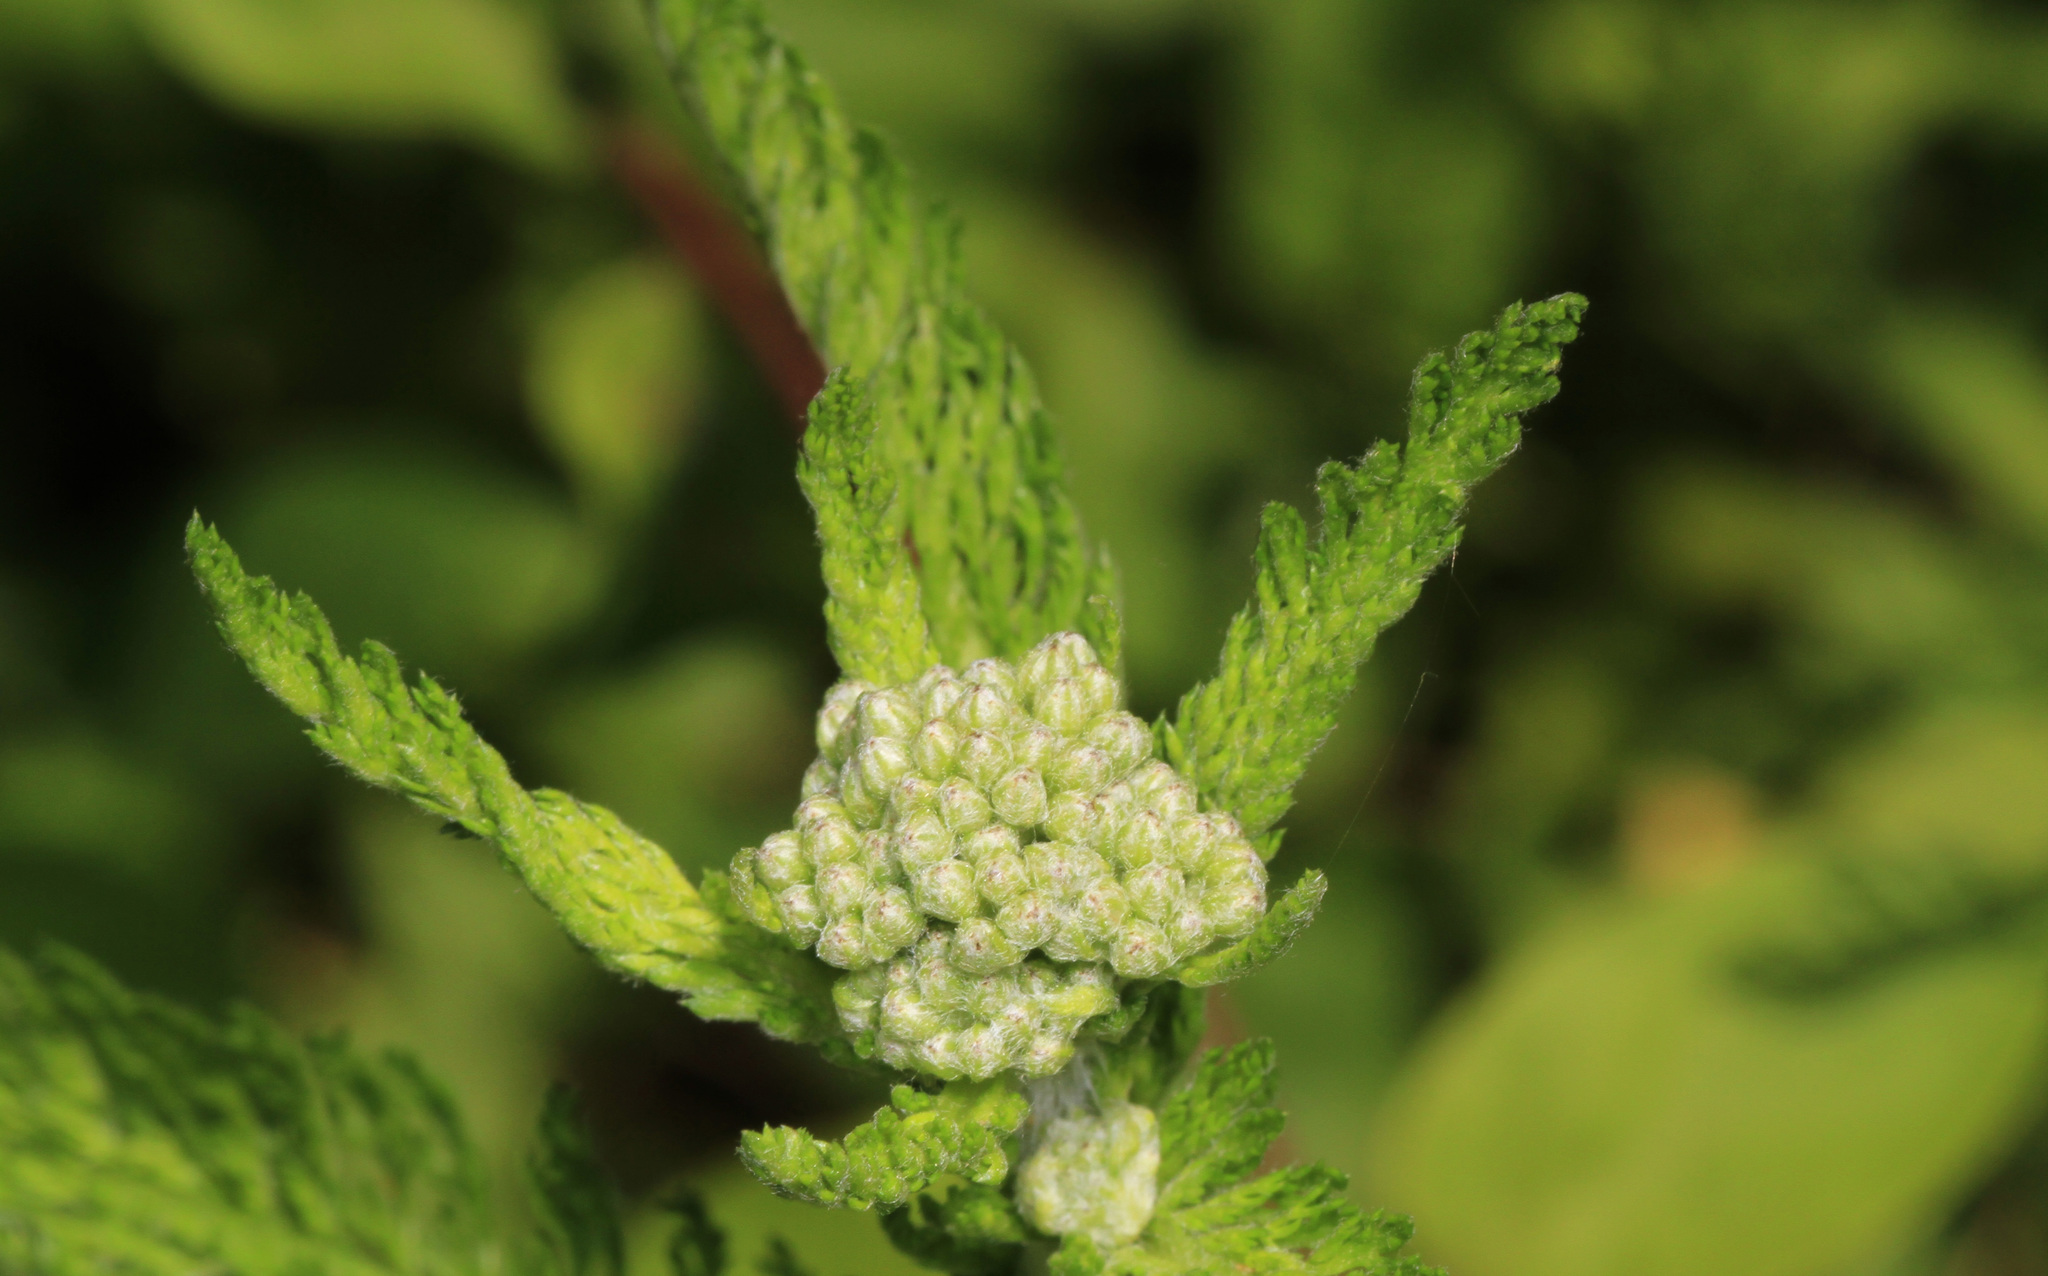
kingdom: Plantae
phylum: Tracheophyta
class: Magnoliopsida
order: Asterales
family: Asteraceae
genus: Achillea
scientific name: Achillea millefolium
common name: Yarrow
